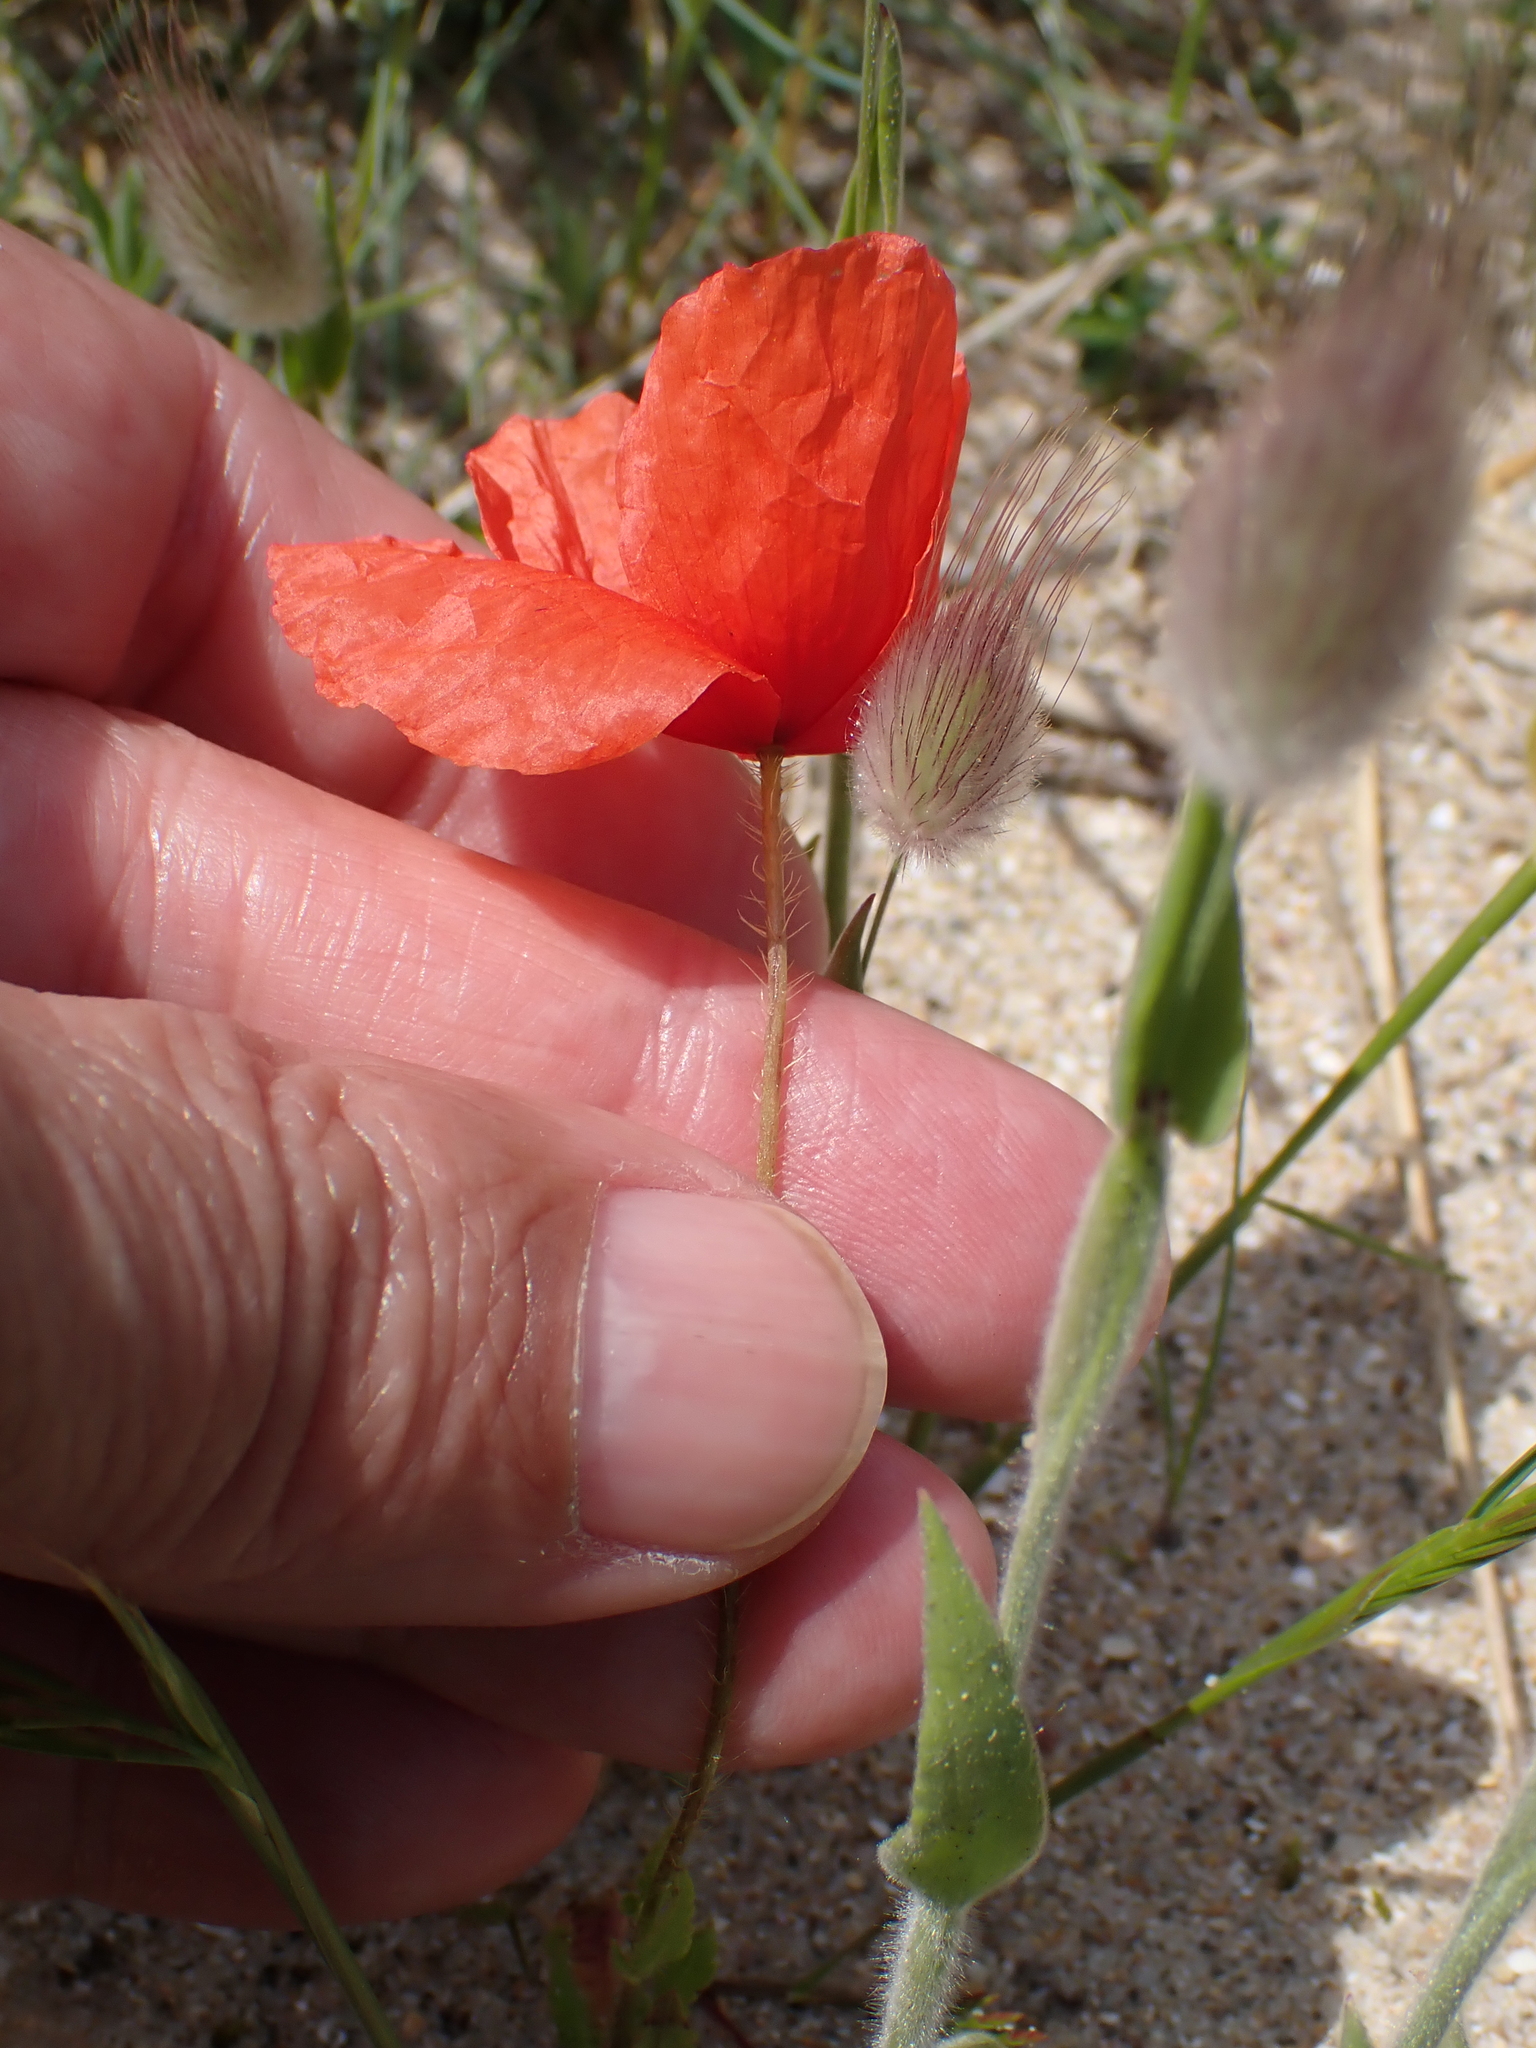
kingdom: Plantae
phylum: Tracheophyta
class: Magnoliopsida
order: Ranunculales
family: Papaveraceae
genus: Papaver
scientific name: Papaver rhoeas
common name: Corn poppy
